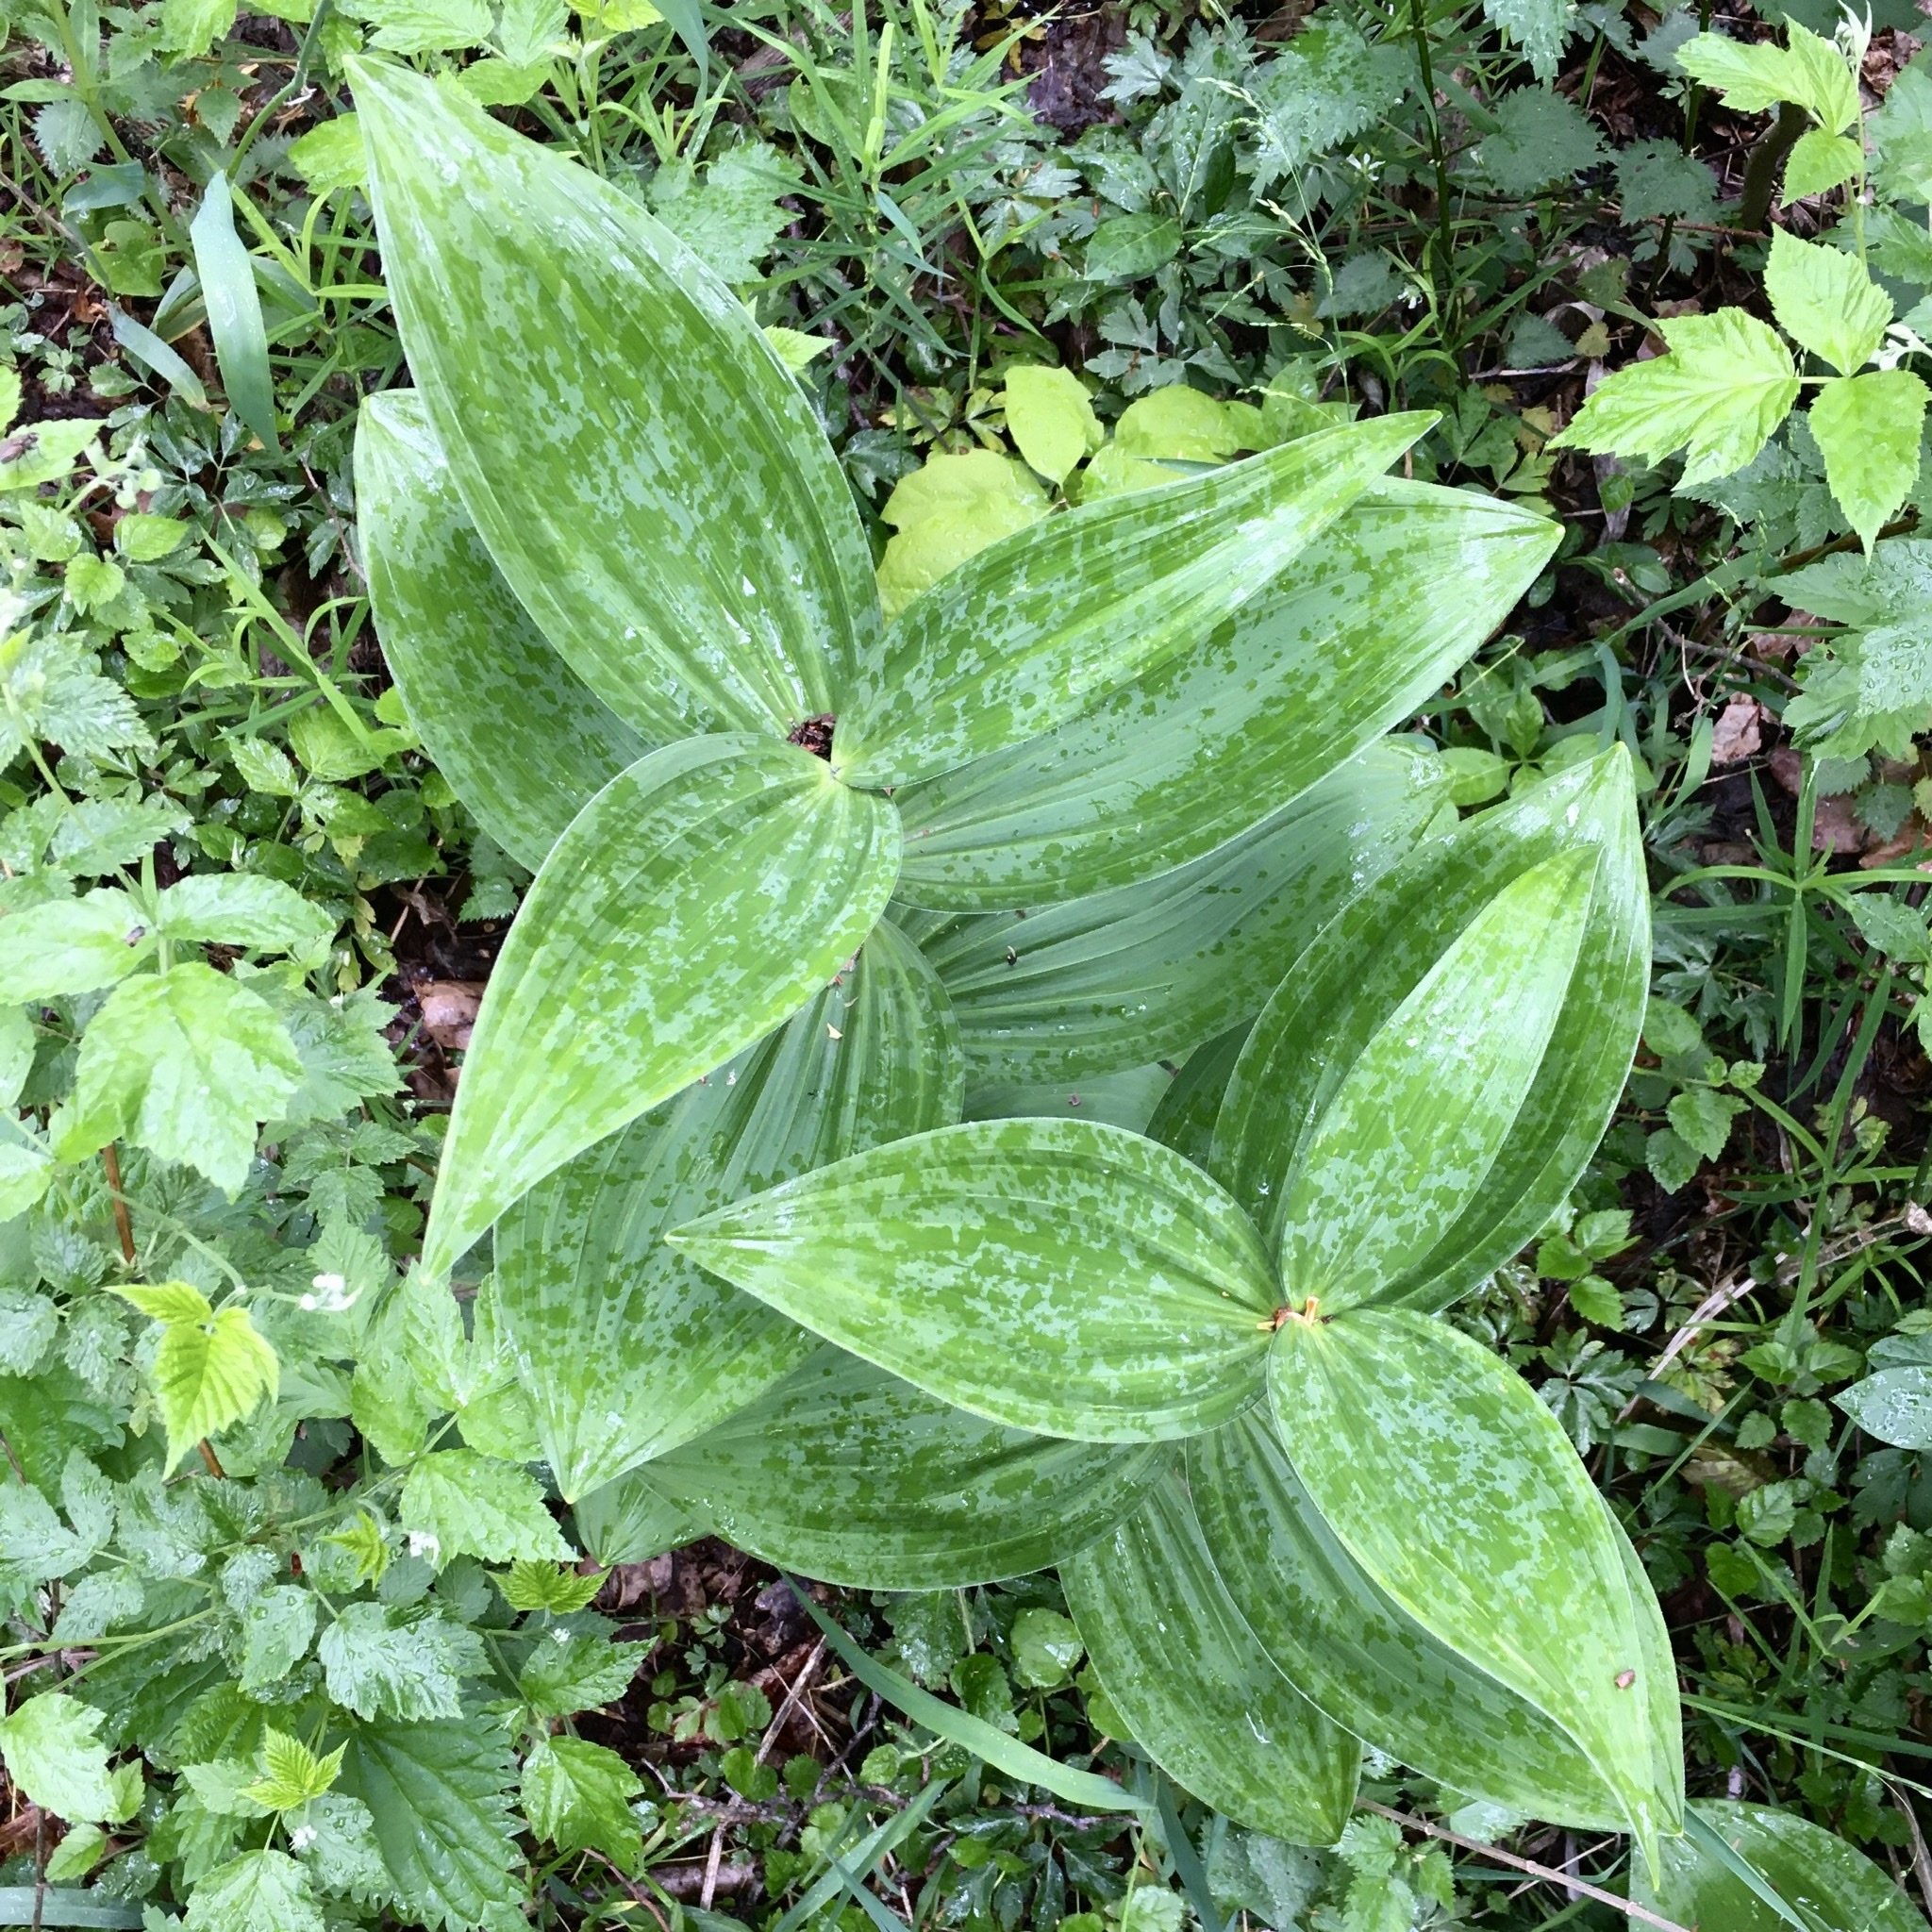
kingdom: Plantae
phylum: Tracheophyta
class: Liliopsida
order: Liliales
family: Melanthiaceae
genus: Veratrum
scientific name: Veratrum lobelianum
